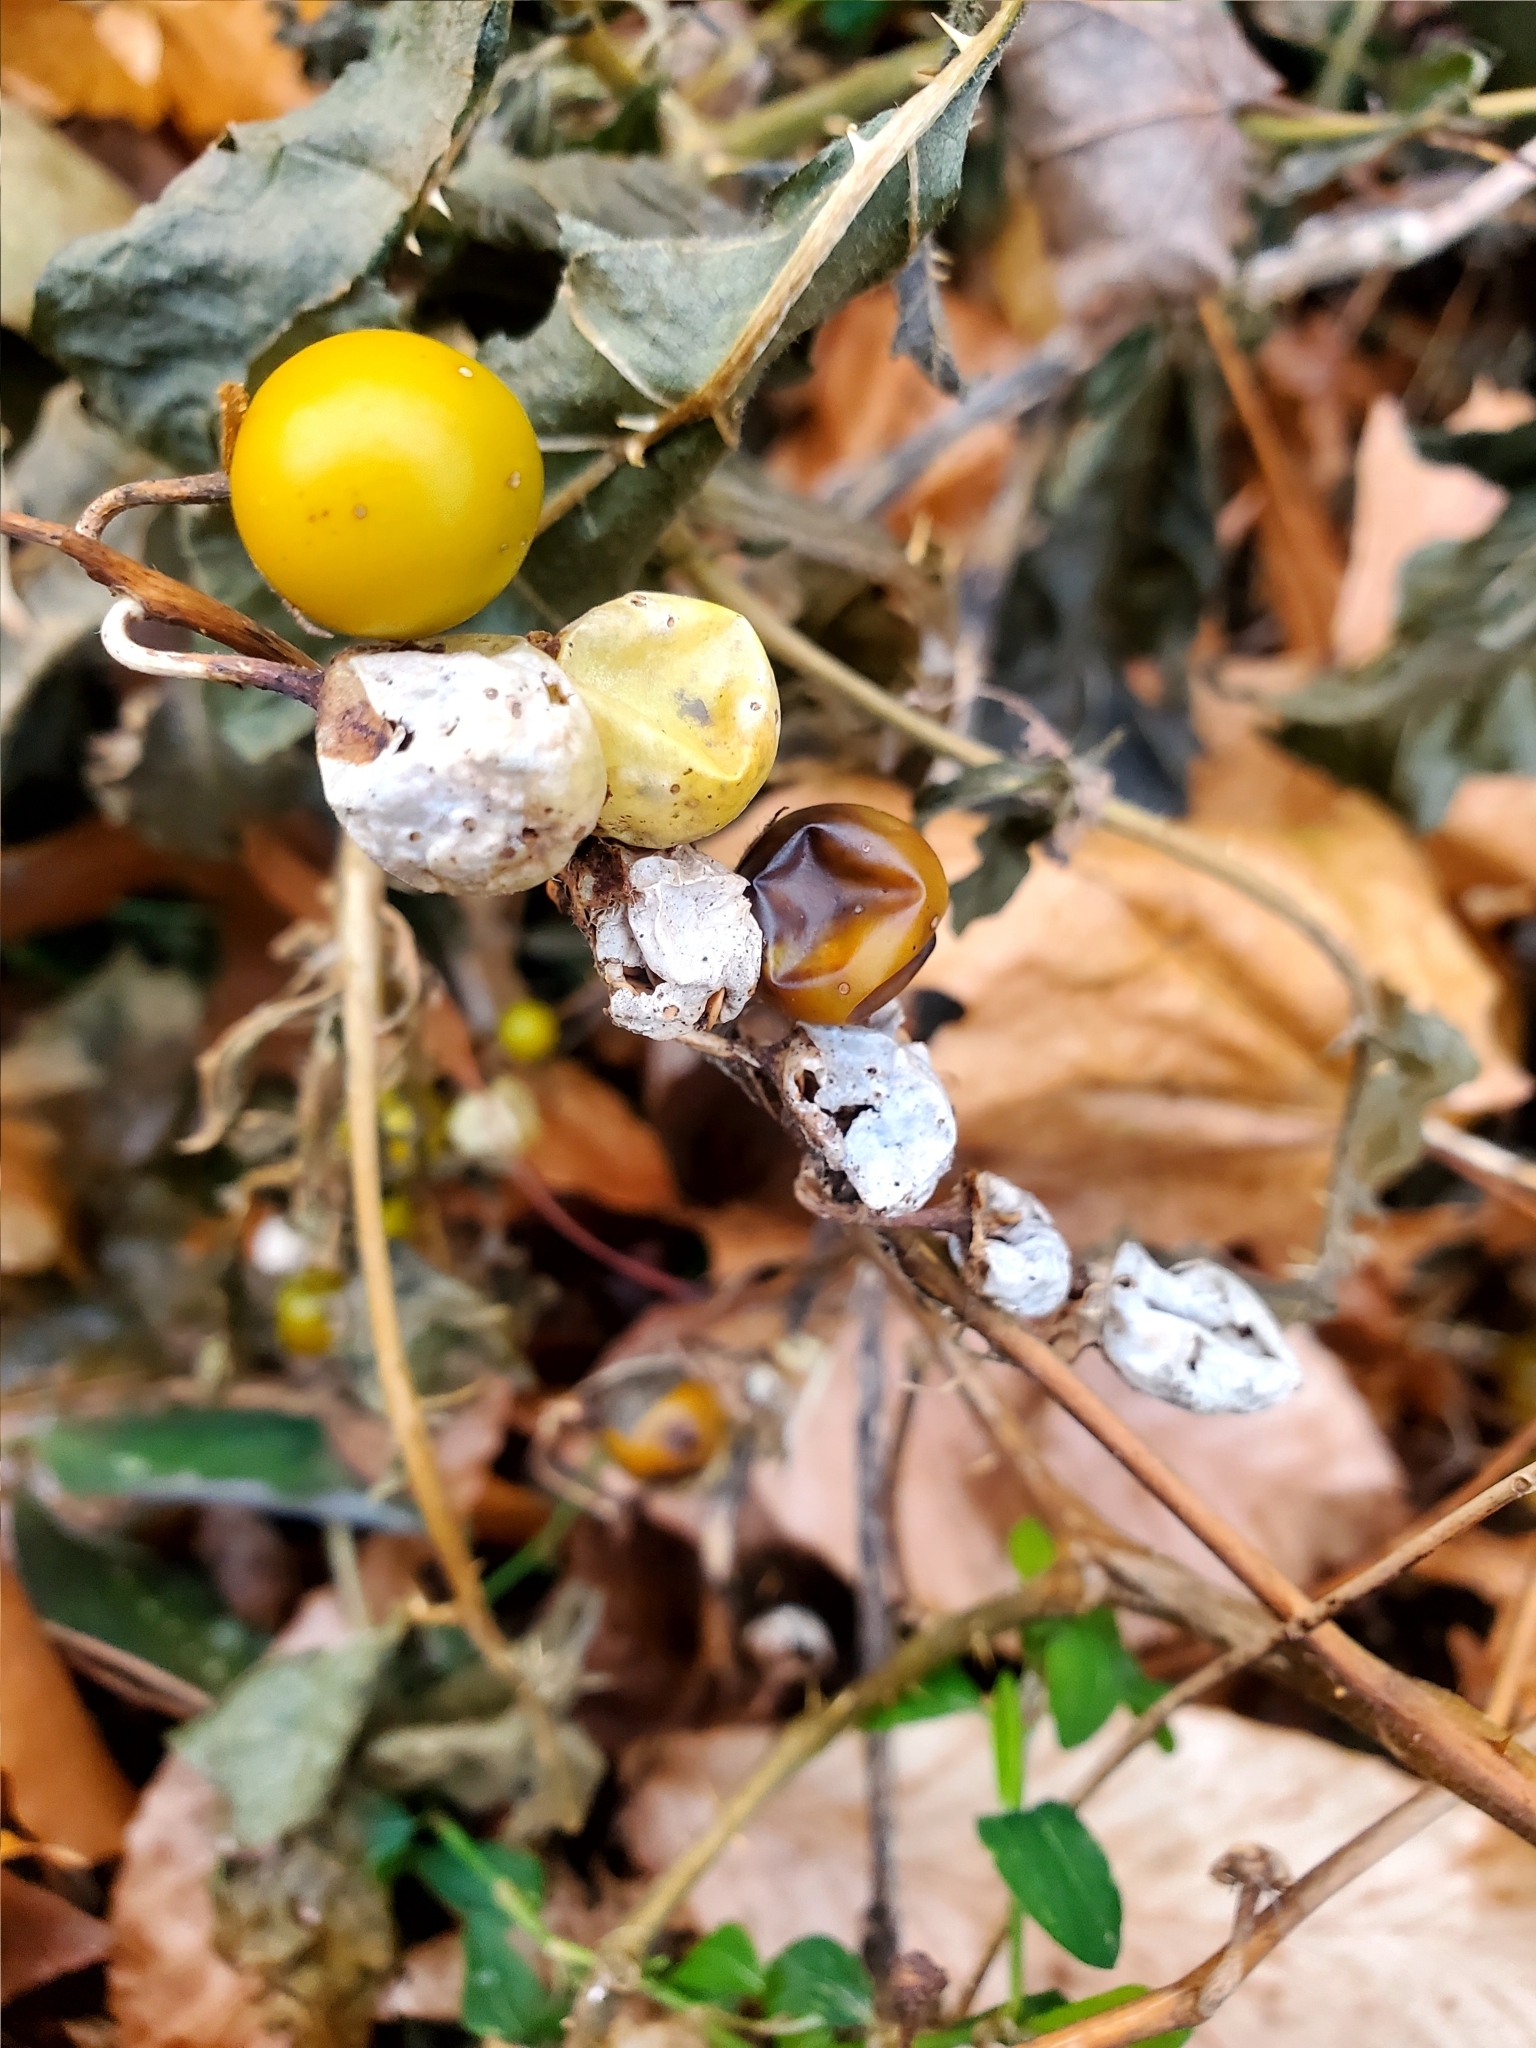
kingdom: Plantae
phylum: Tracheophyta
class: Magnoliopsida
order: Solanales
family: Solanaceae
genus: Solanum
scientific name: Solanum carolinense
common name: Horse-nettle
